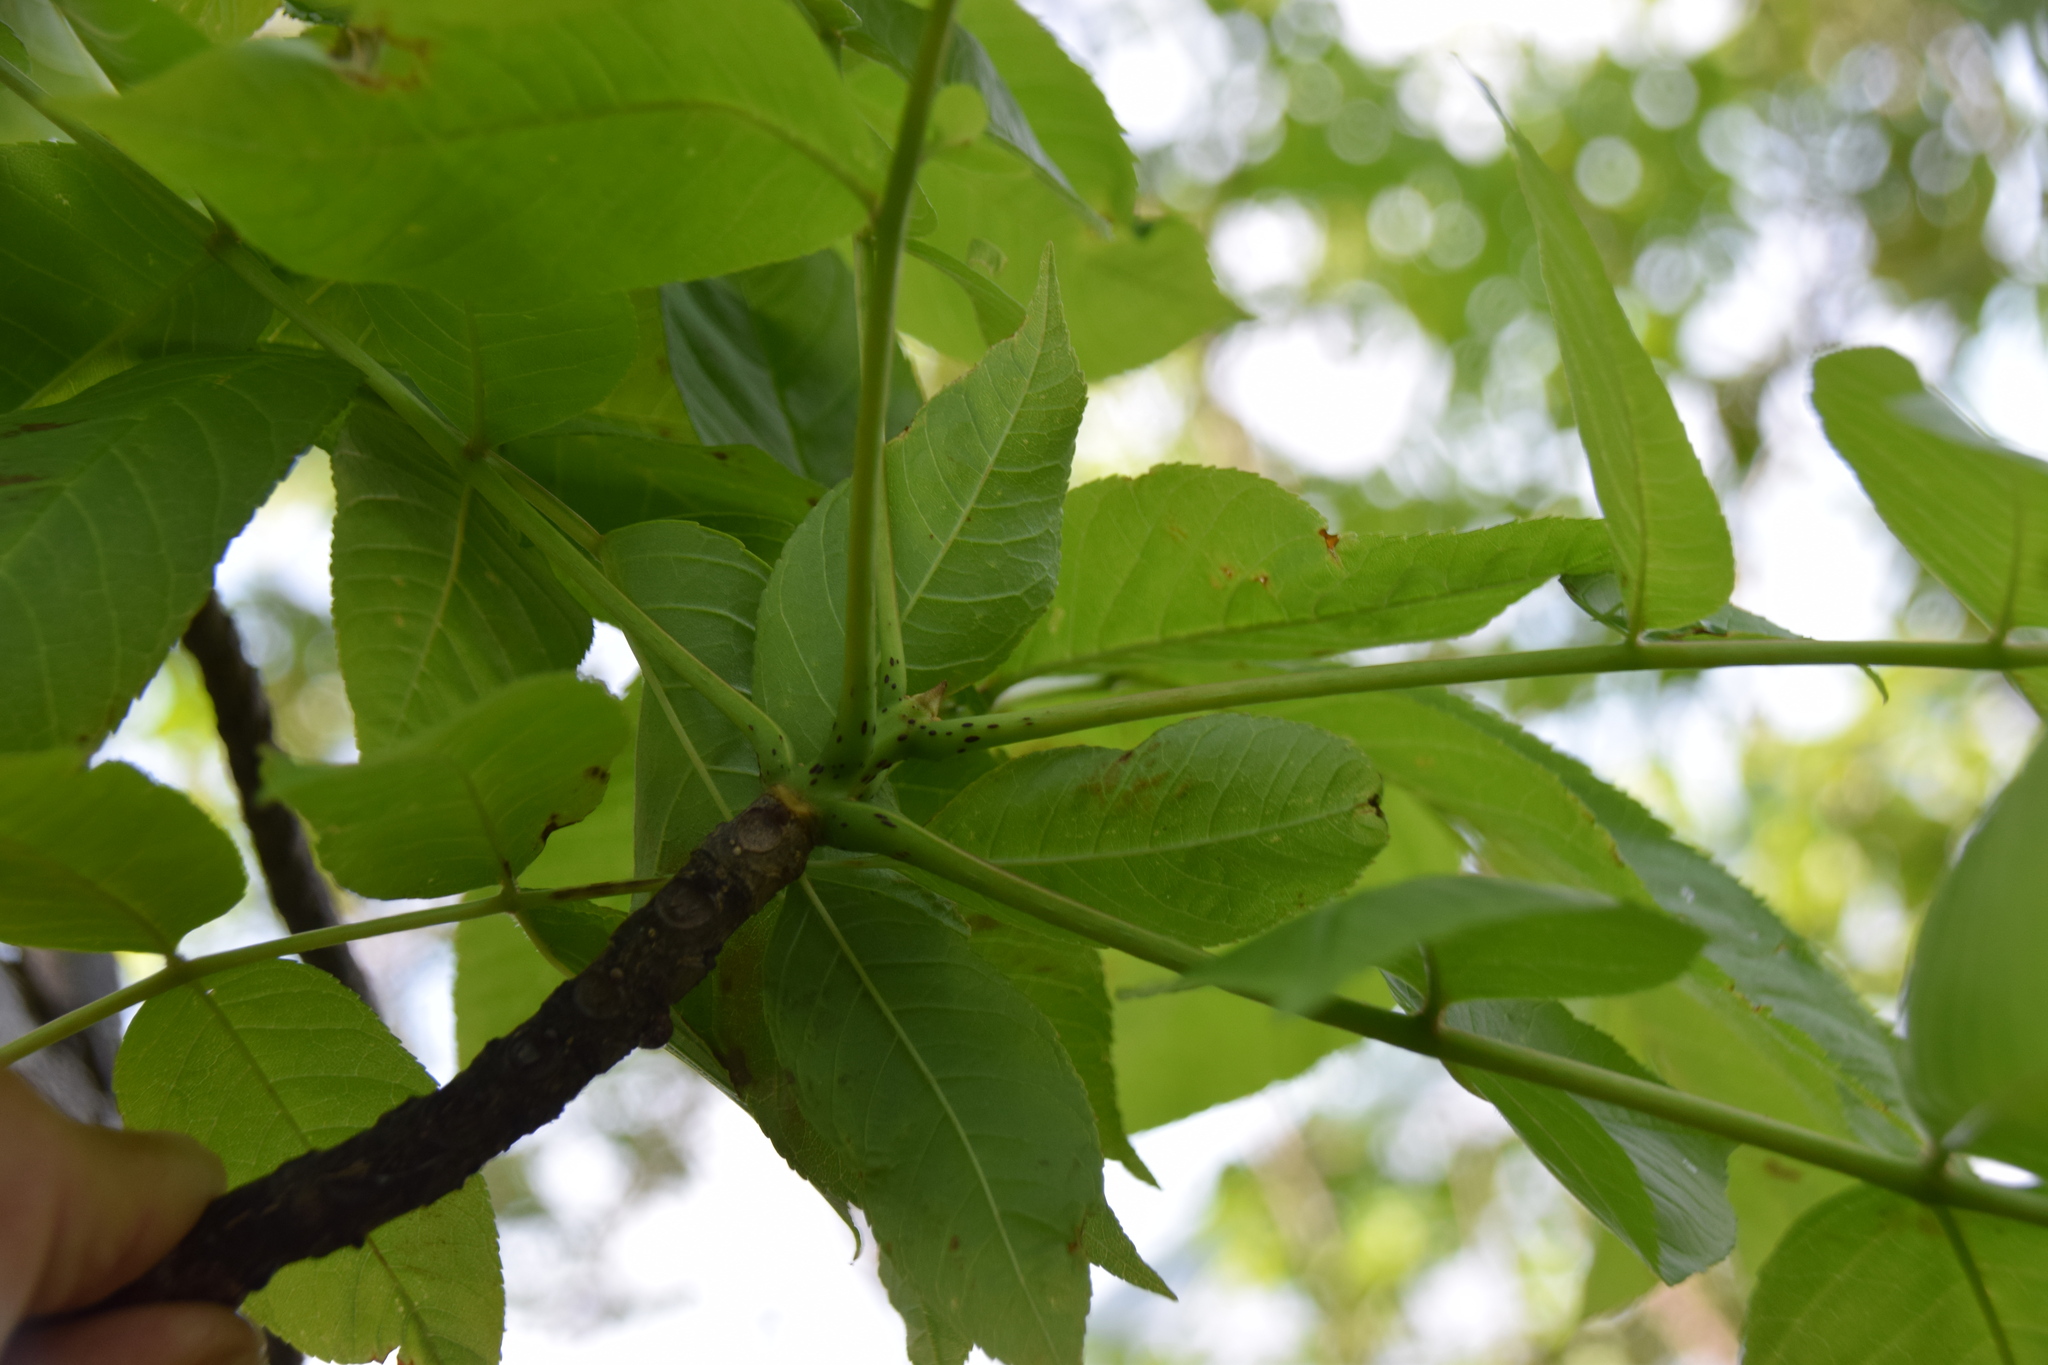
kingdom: Plantae
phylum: Tracheophyta
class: Magnoliopsida
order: Lamiales
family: Oleaceae
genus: Fraxinus
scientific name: Fraxinus nigra
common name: Black ash
